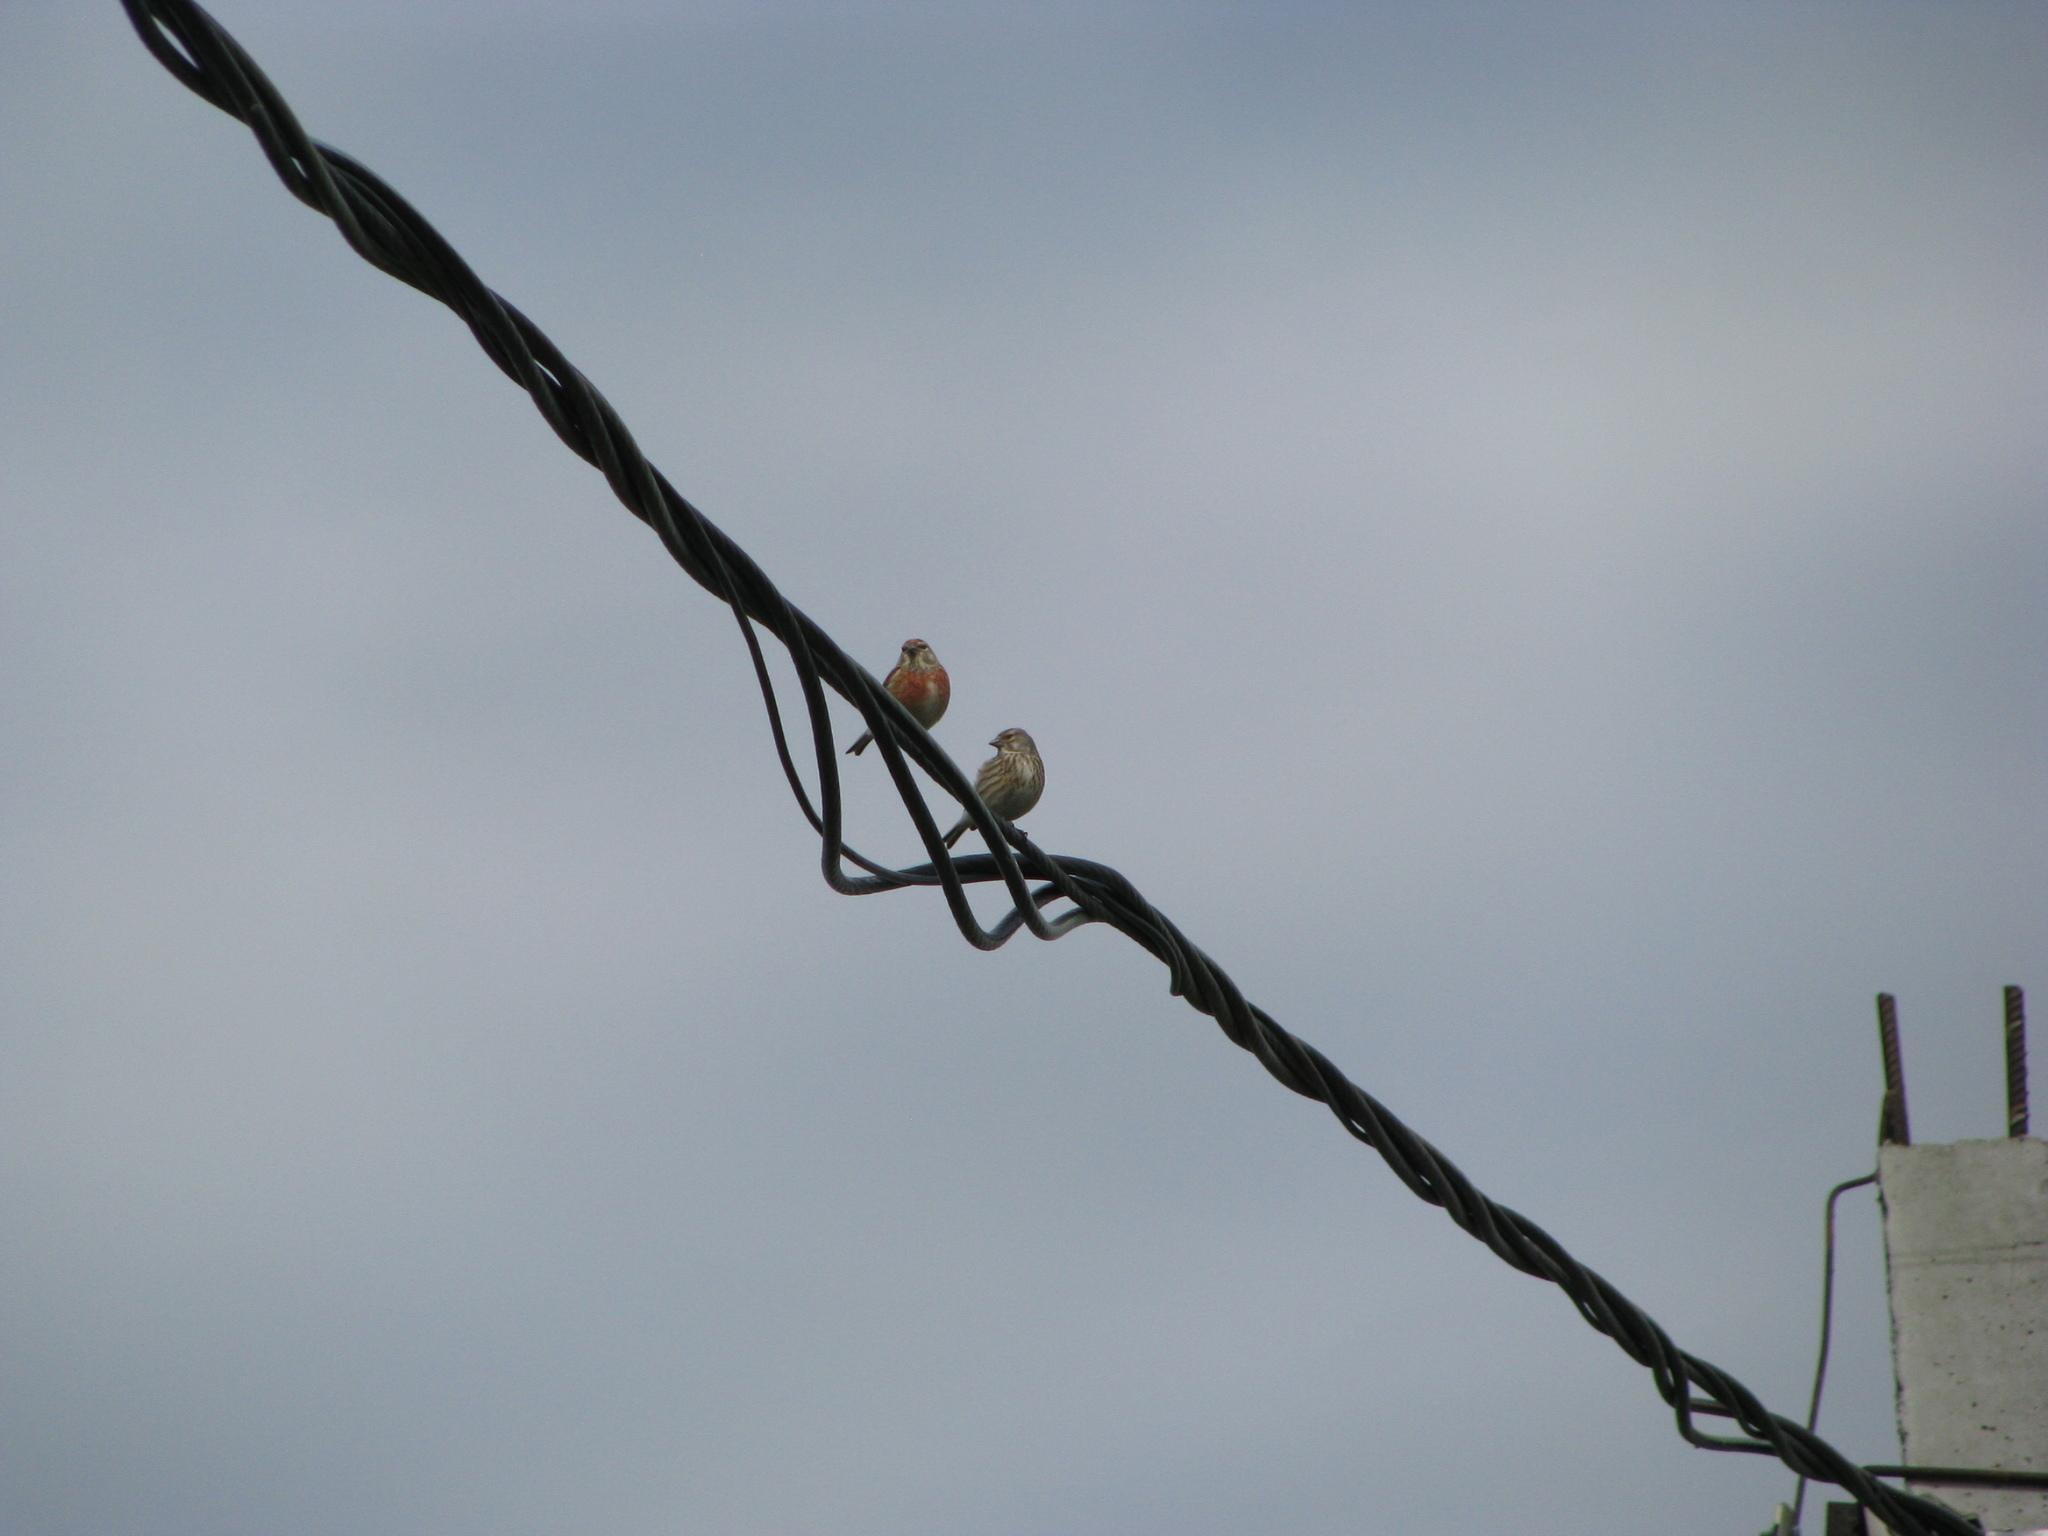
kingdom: Animalia
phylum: Chordata
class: Aves
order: Passeriformes
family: Fringillidae
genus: Linaria
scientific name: Linaria cannabina
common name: Common linnet
